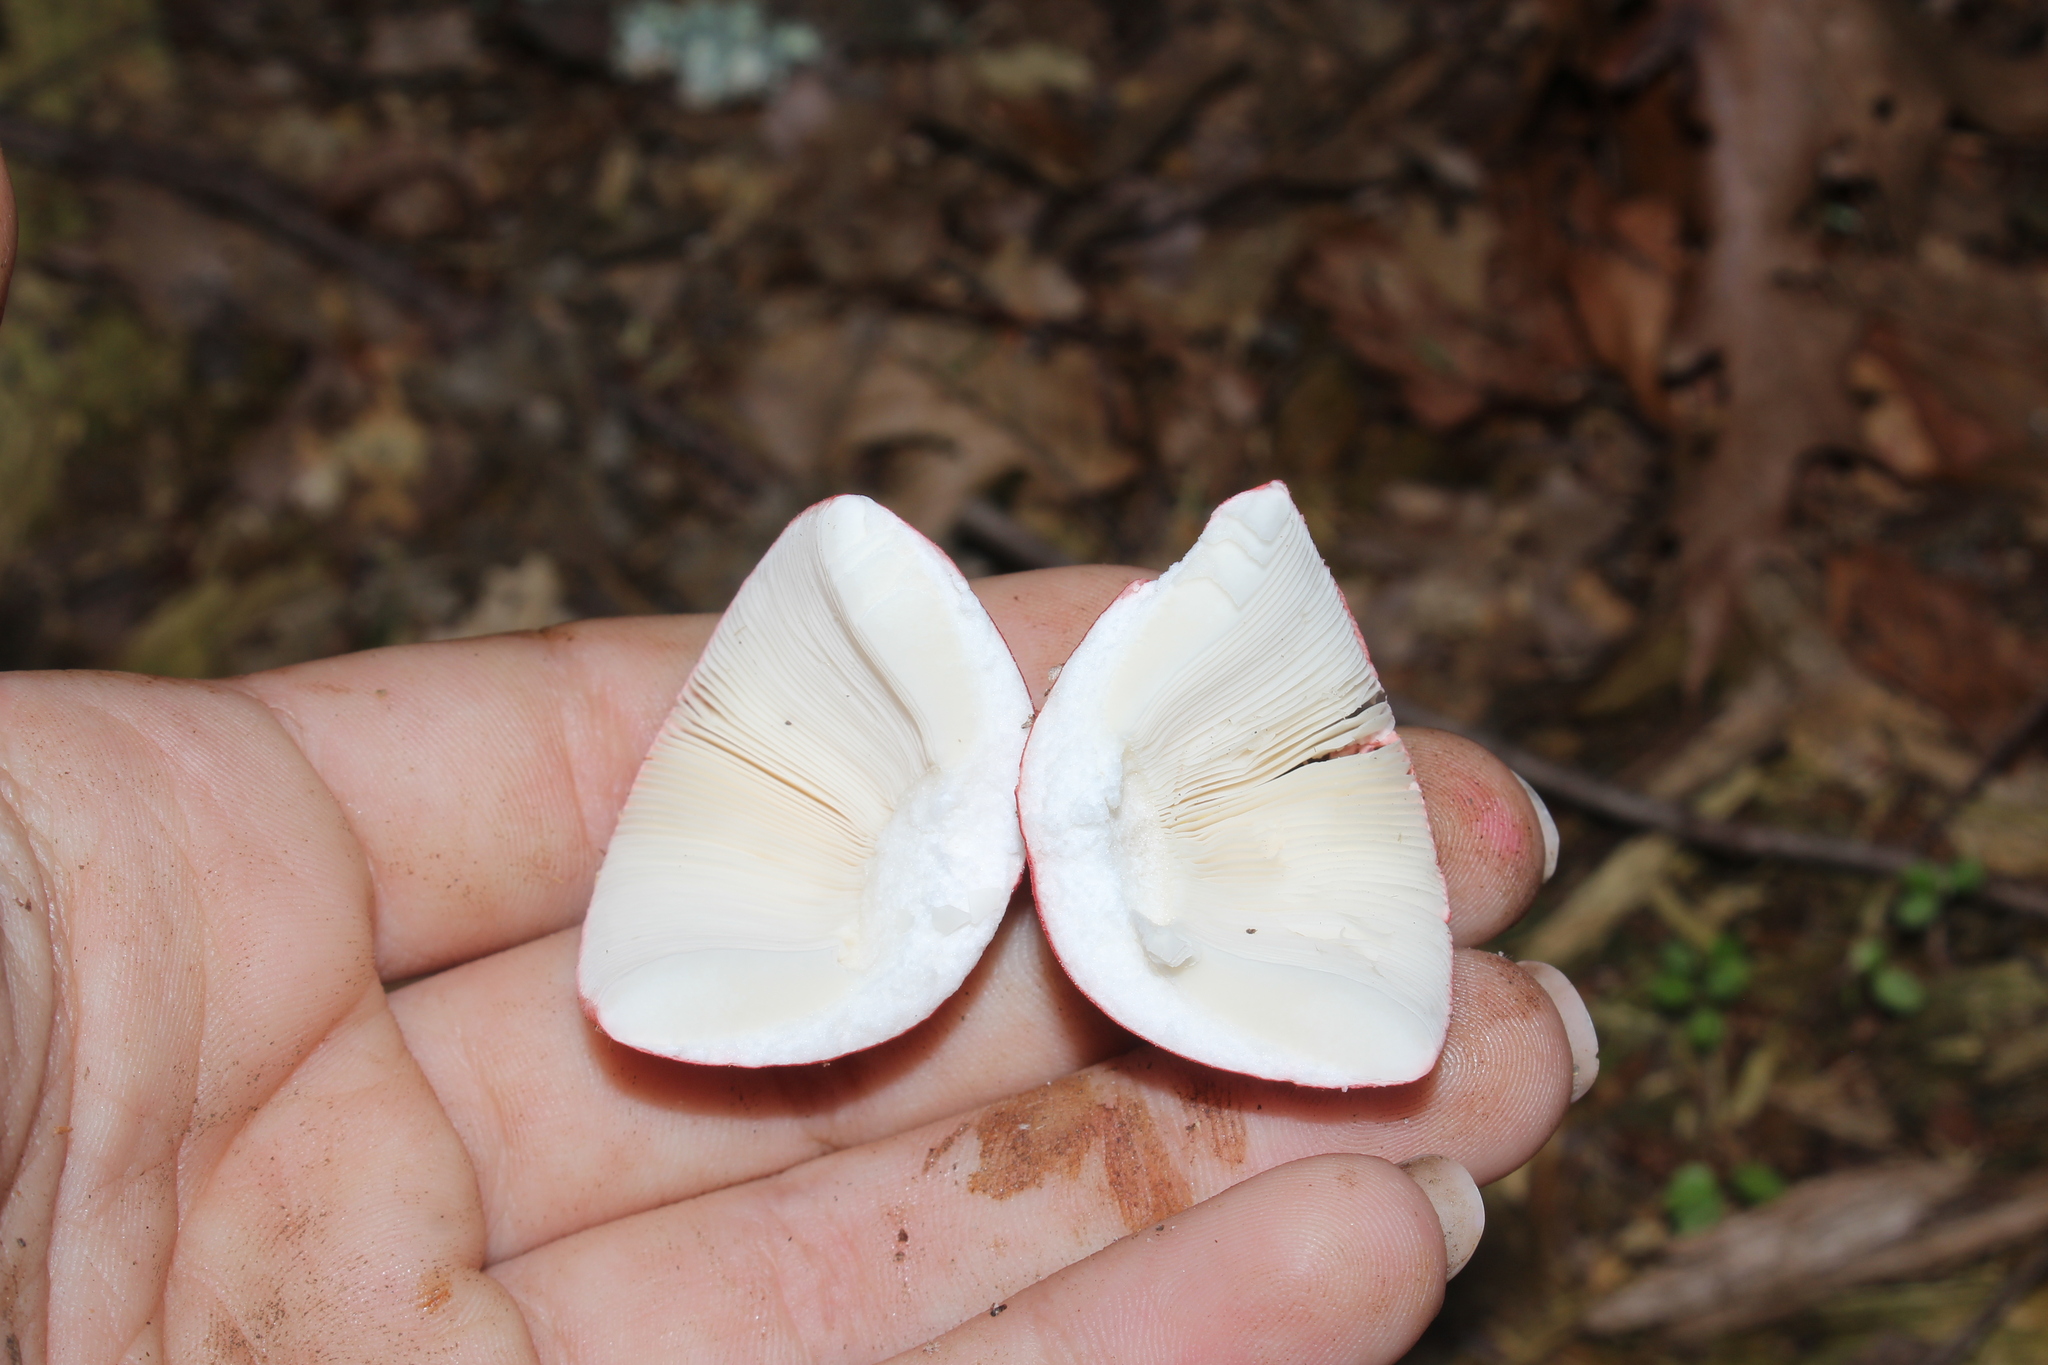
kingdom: Fungi
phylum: Basidiomycota
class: Agaricomycetes
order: Russulales
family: Russulaceae
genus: Russula
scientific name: Russula
